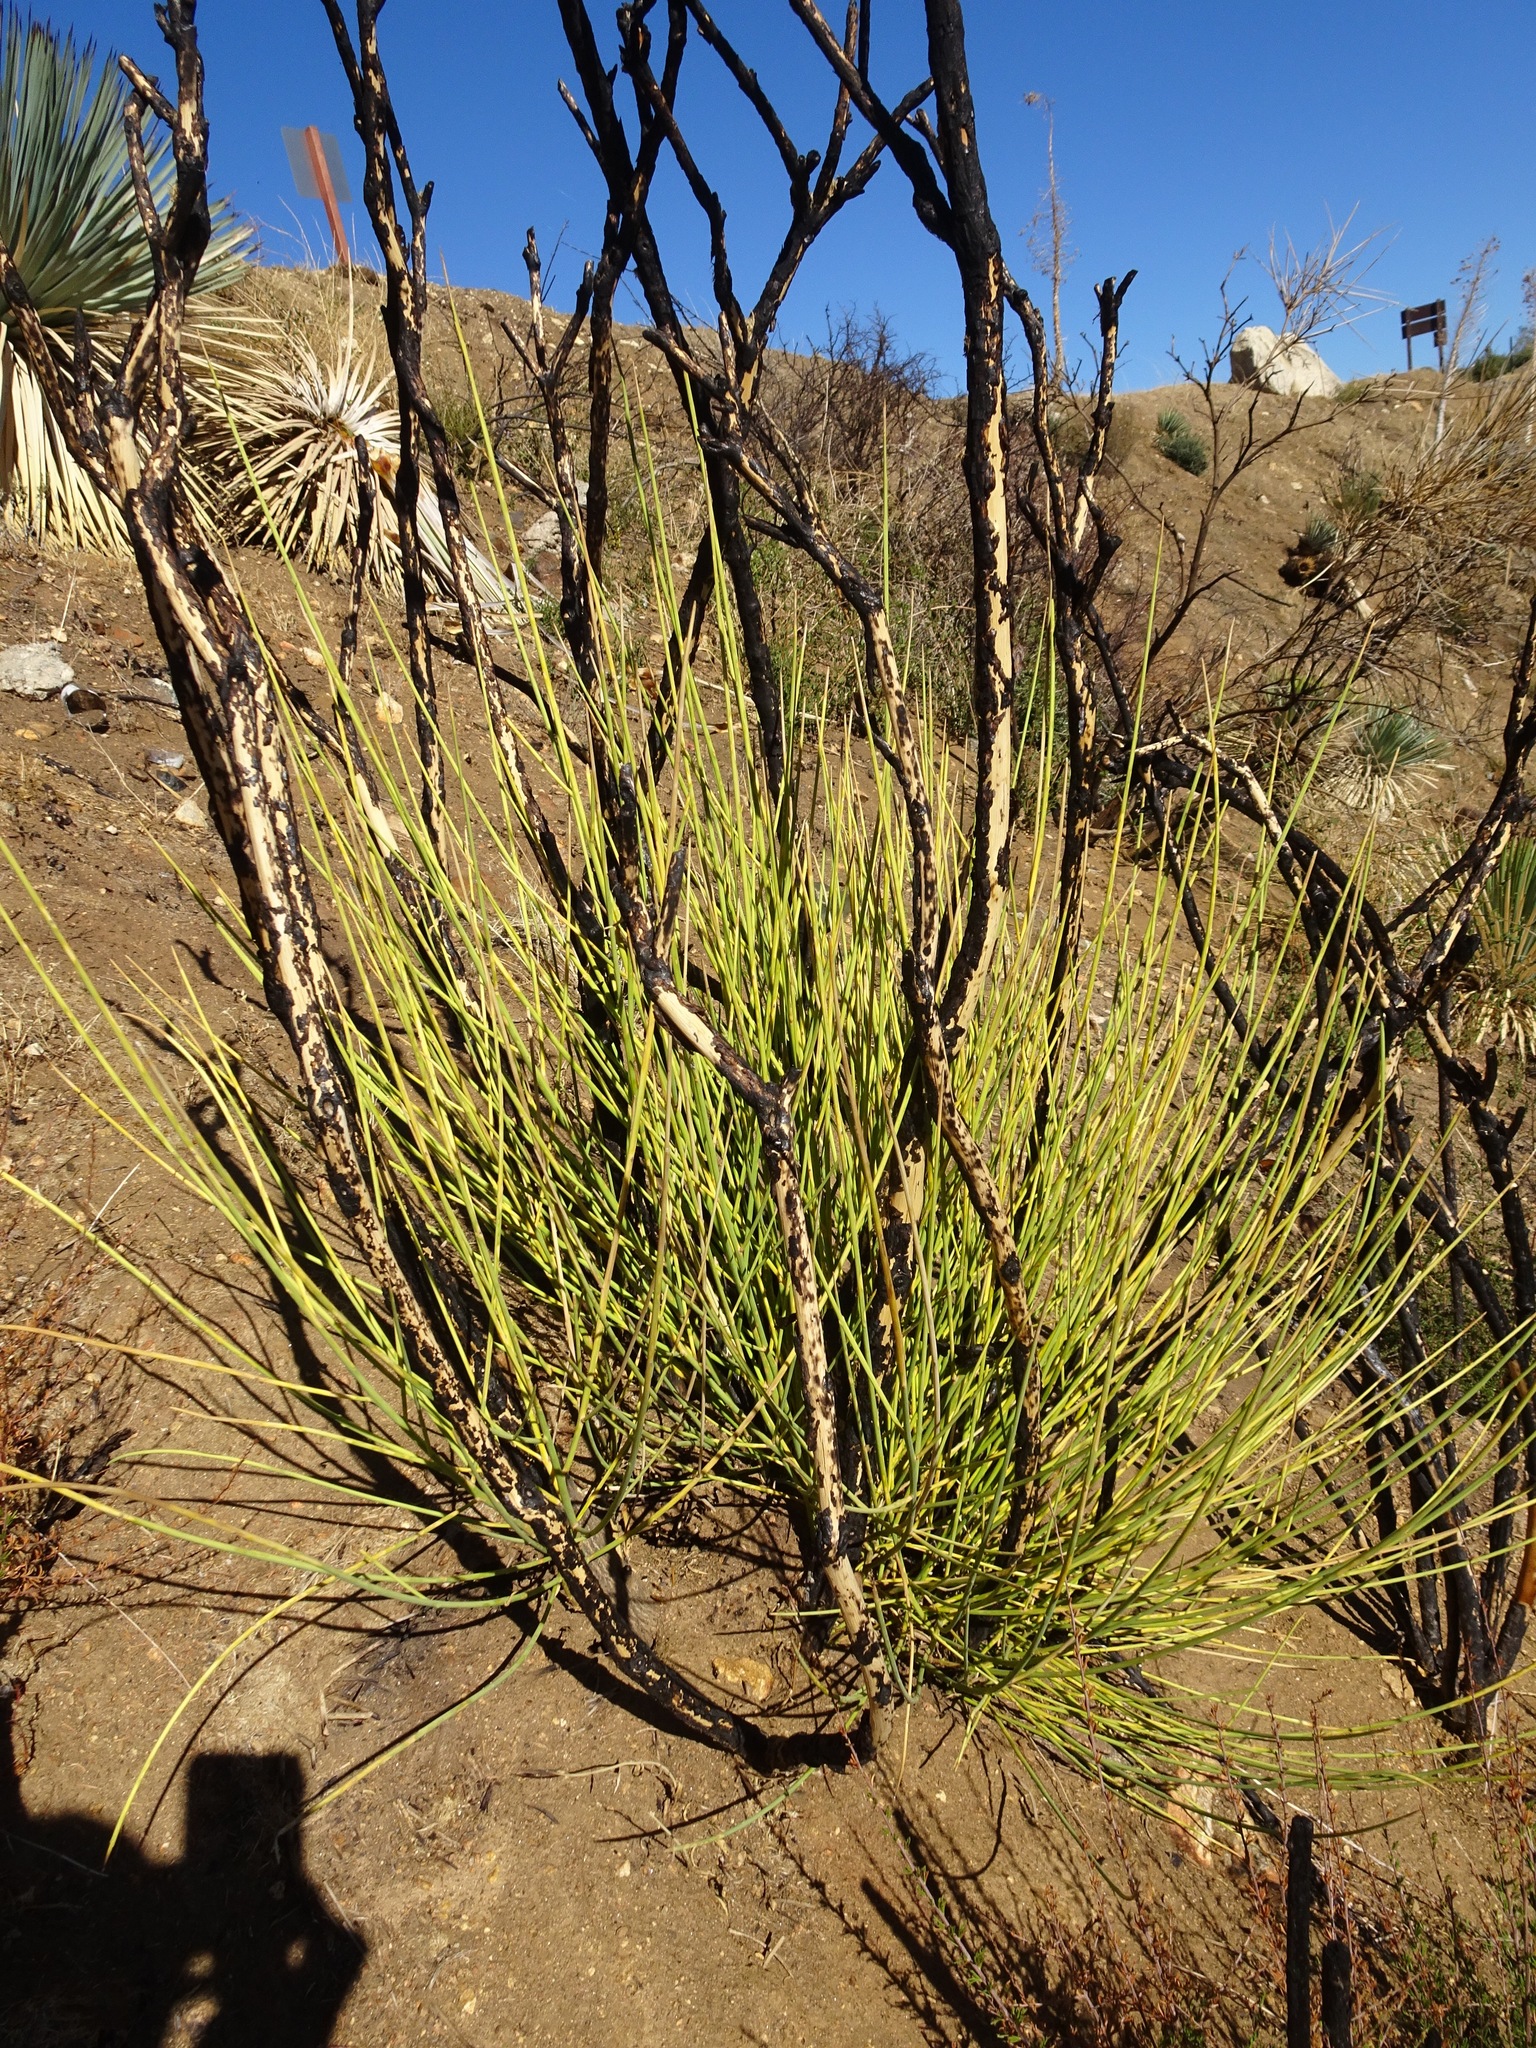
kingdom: Plantae
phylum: Tracheophyta
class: Magnoliopsida
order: Fabales
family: Fabaceae
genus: Spartium
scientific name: Spartium junceum
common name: Spanish broom
